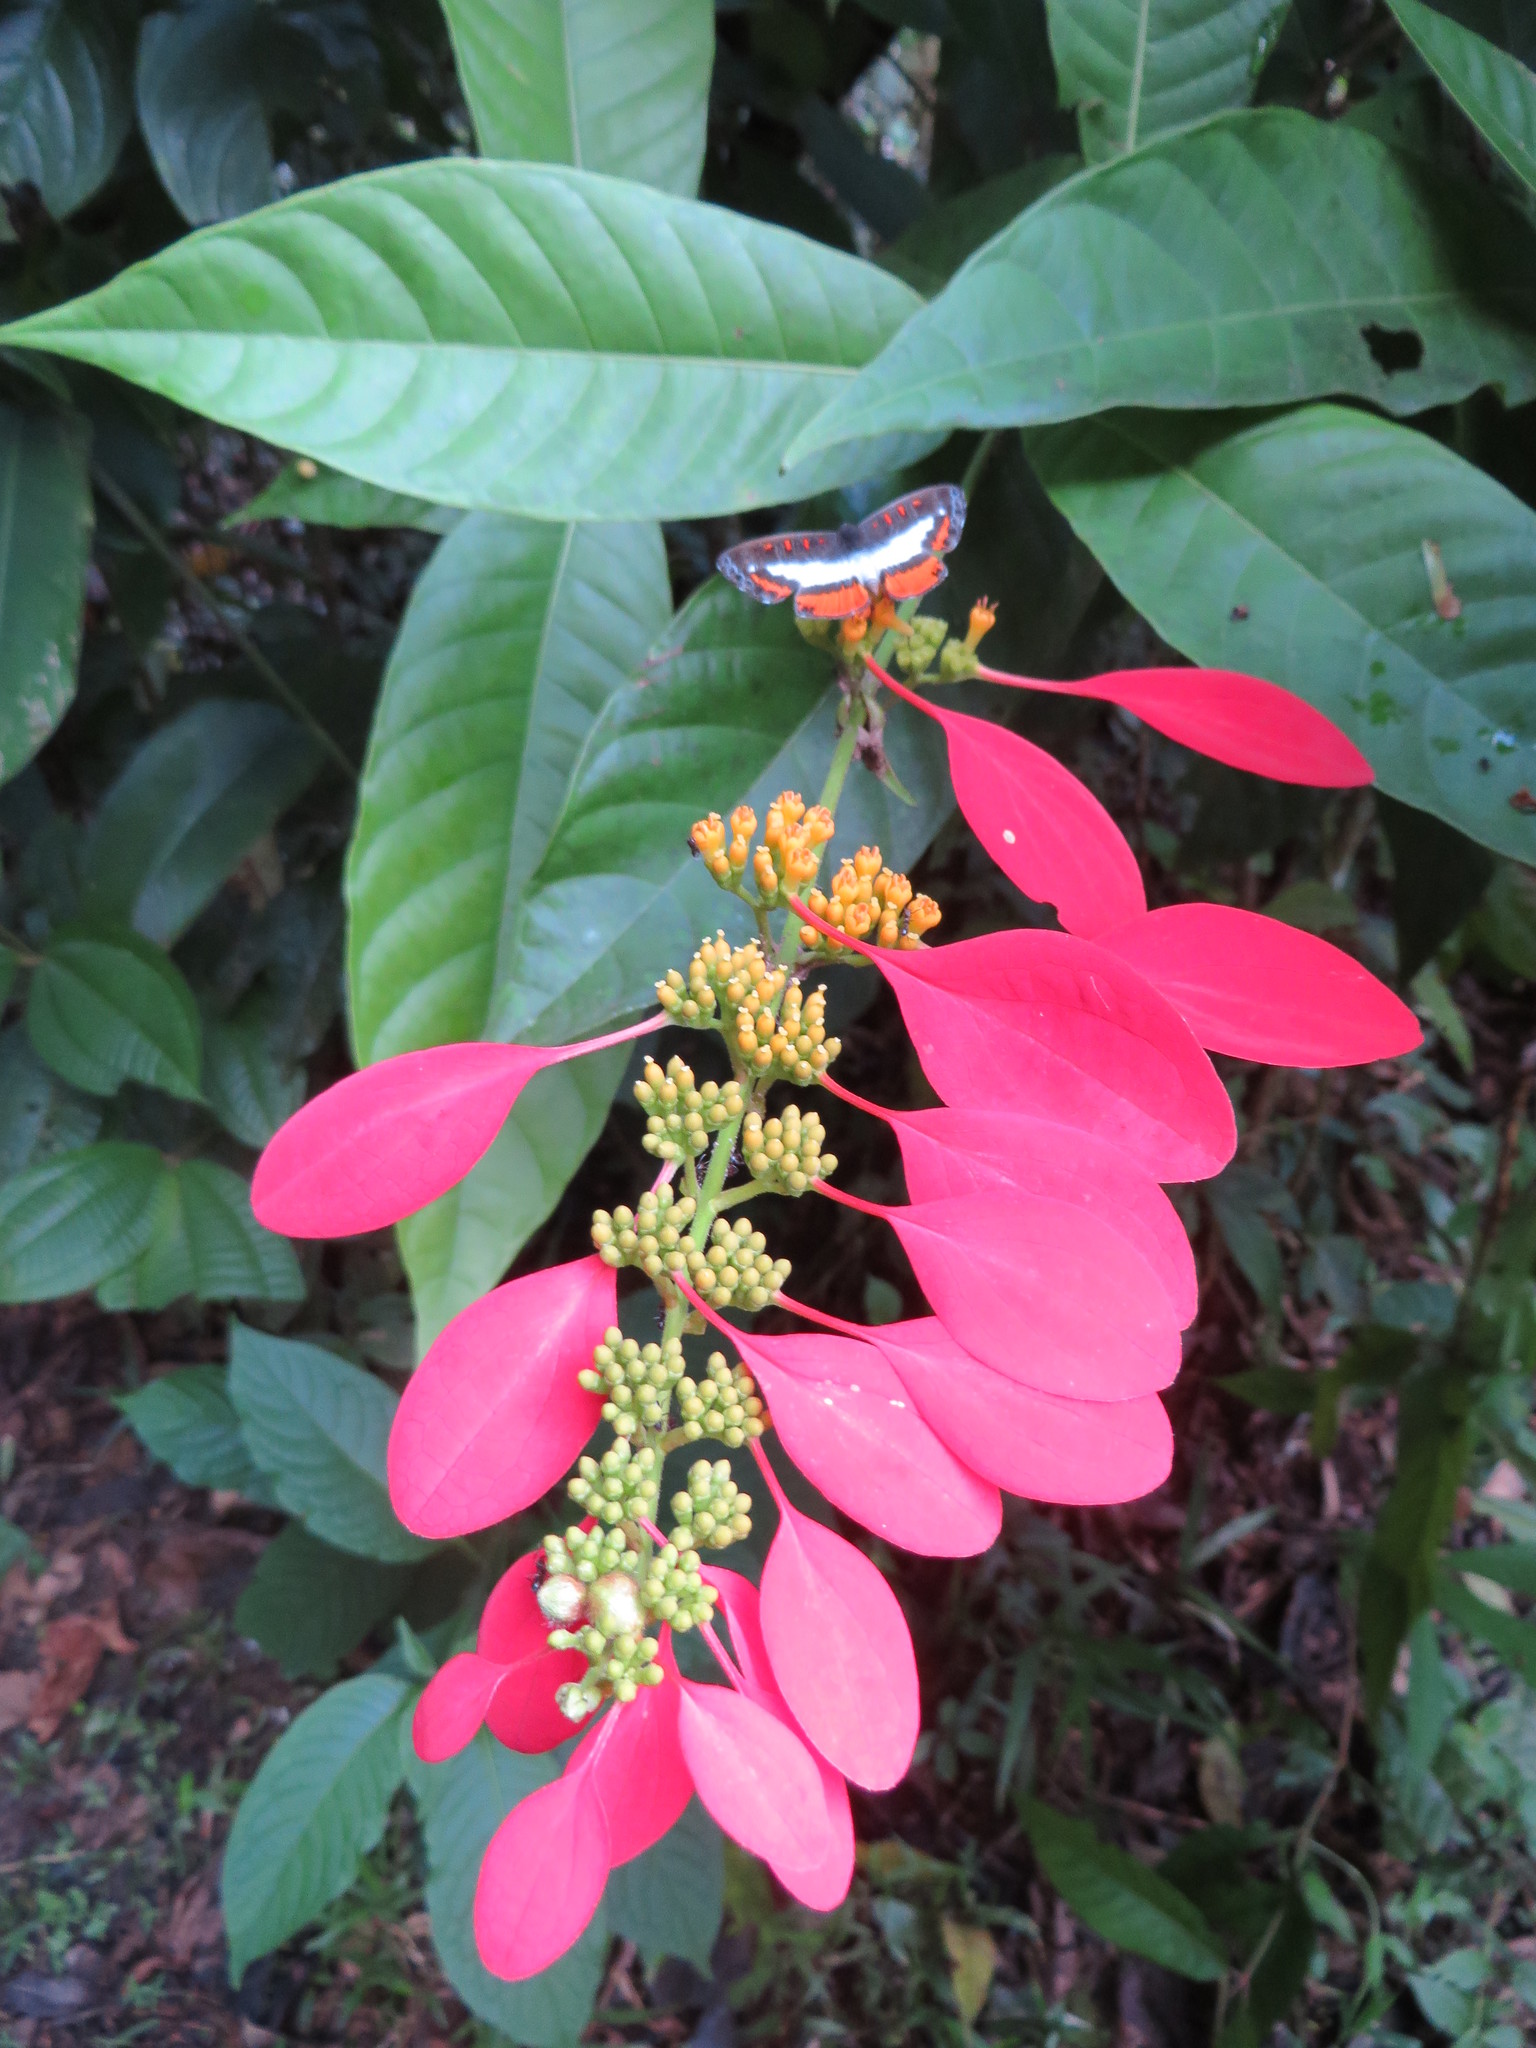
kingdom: Plantae
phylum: Tracheophyta
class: Magnoliopsida
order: Gentianales
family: Rubiaceae
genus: Warszewiczia
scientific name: Warszewiczia coccinea
